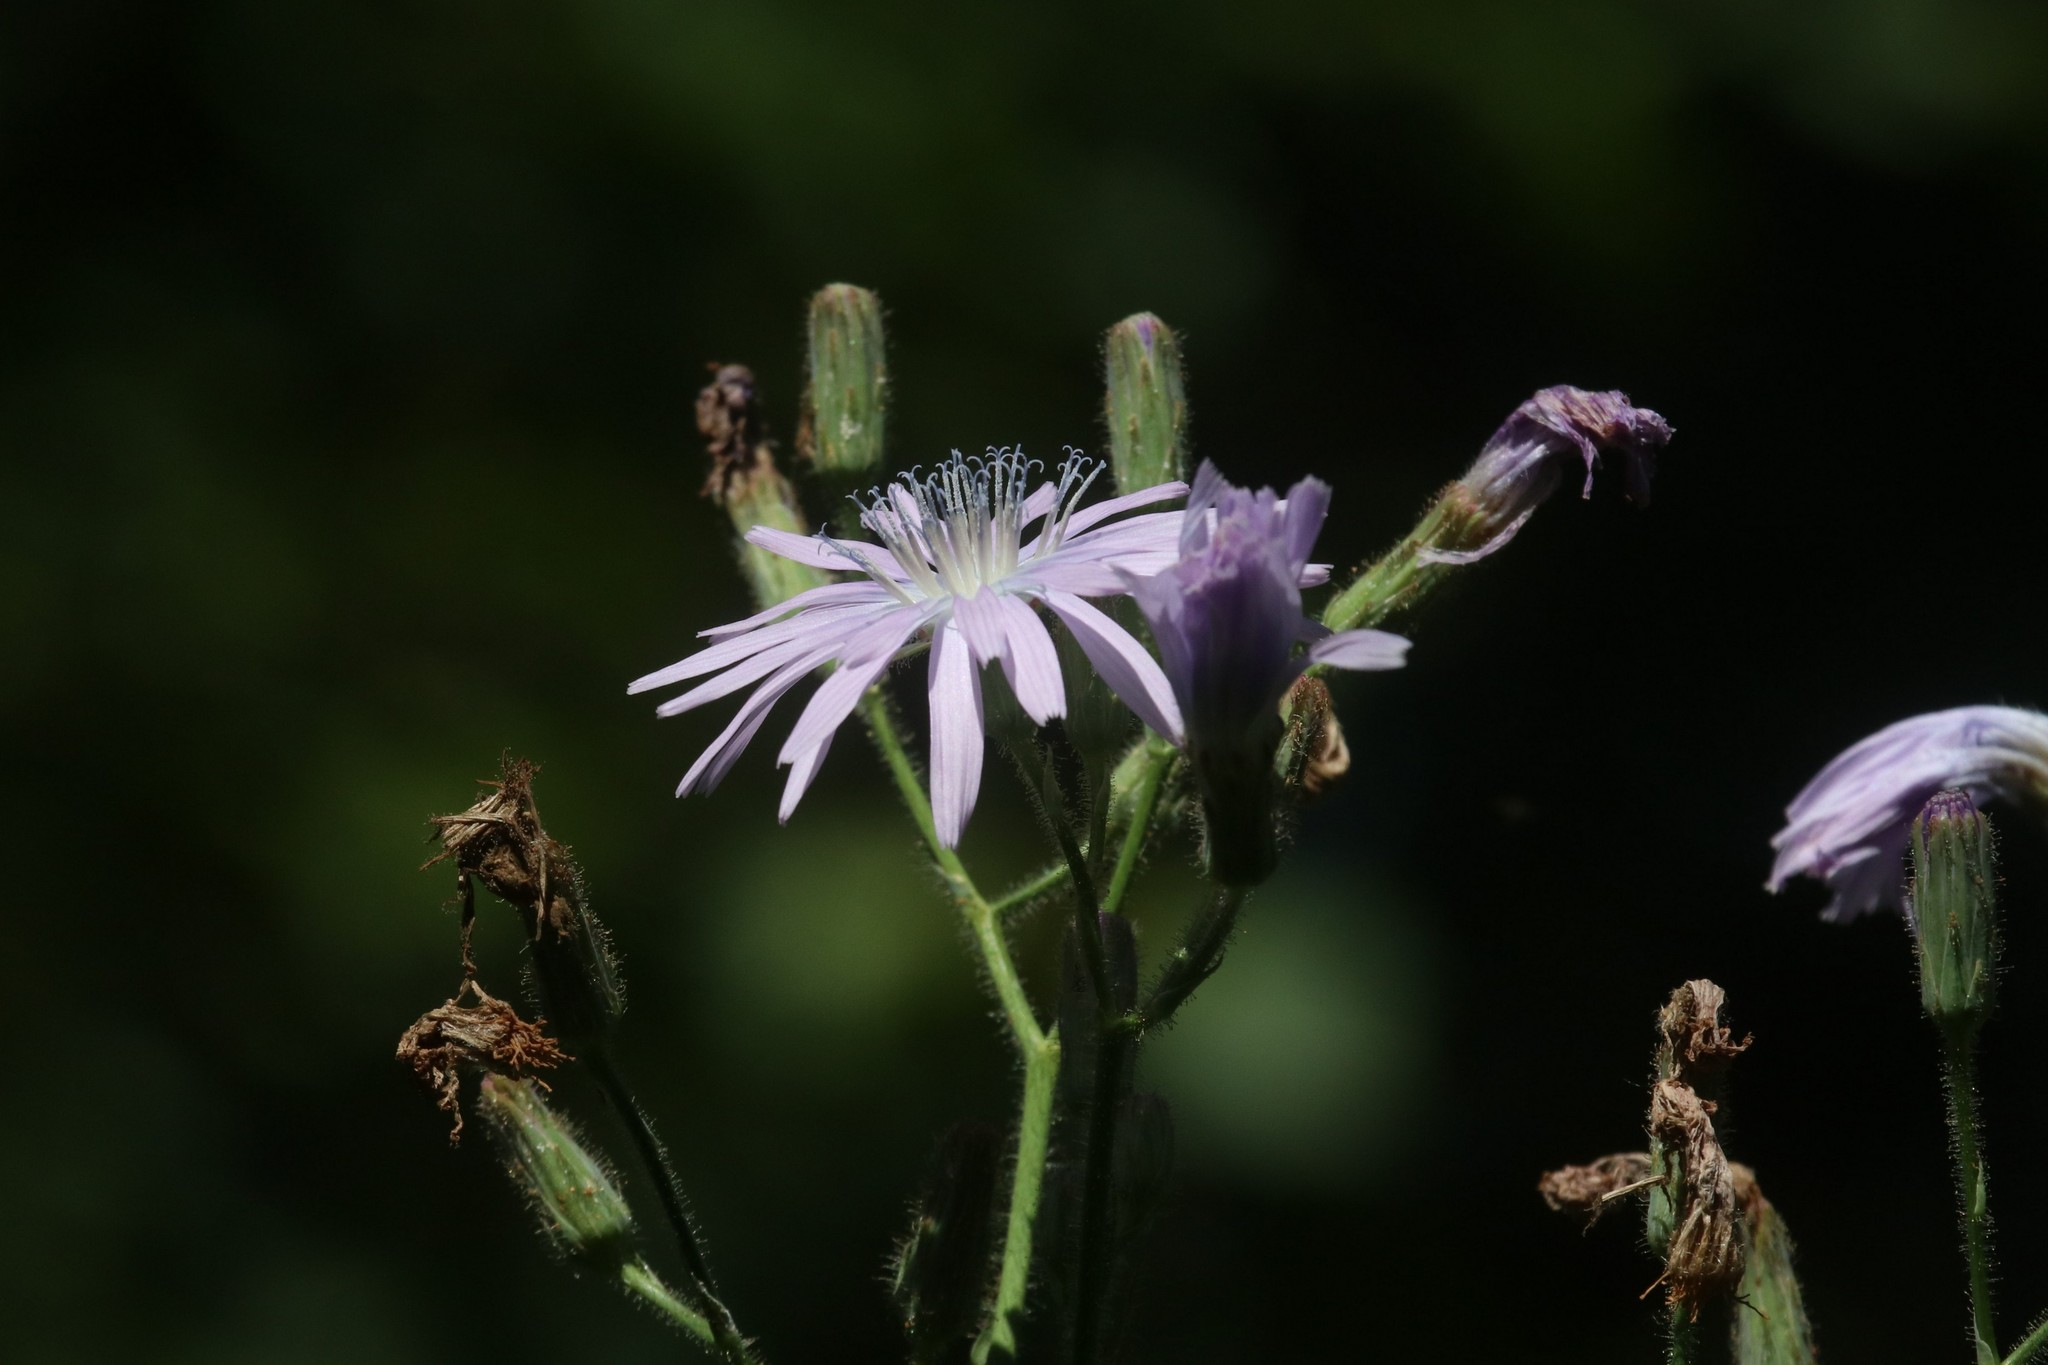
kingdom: Plantae
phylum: Tracheophyta
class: Magnoliopsida
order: Asterales
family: Asteraceae
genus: Lactuca
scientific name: Lactuca macrophylla
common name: Common blue-sow-thistle
